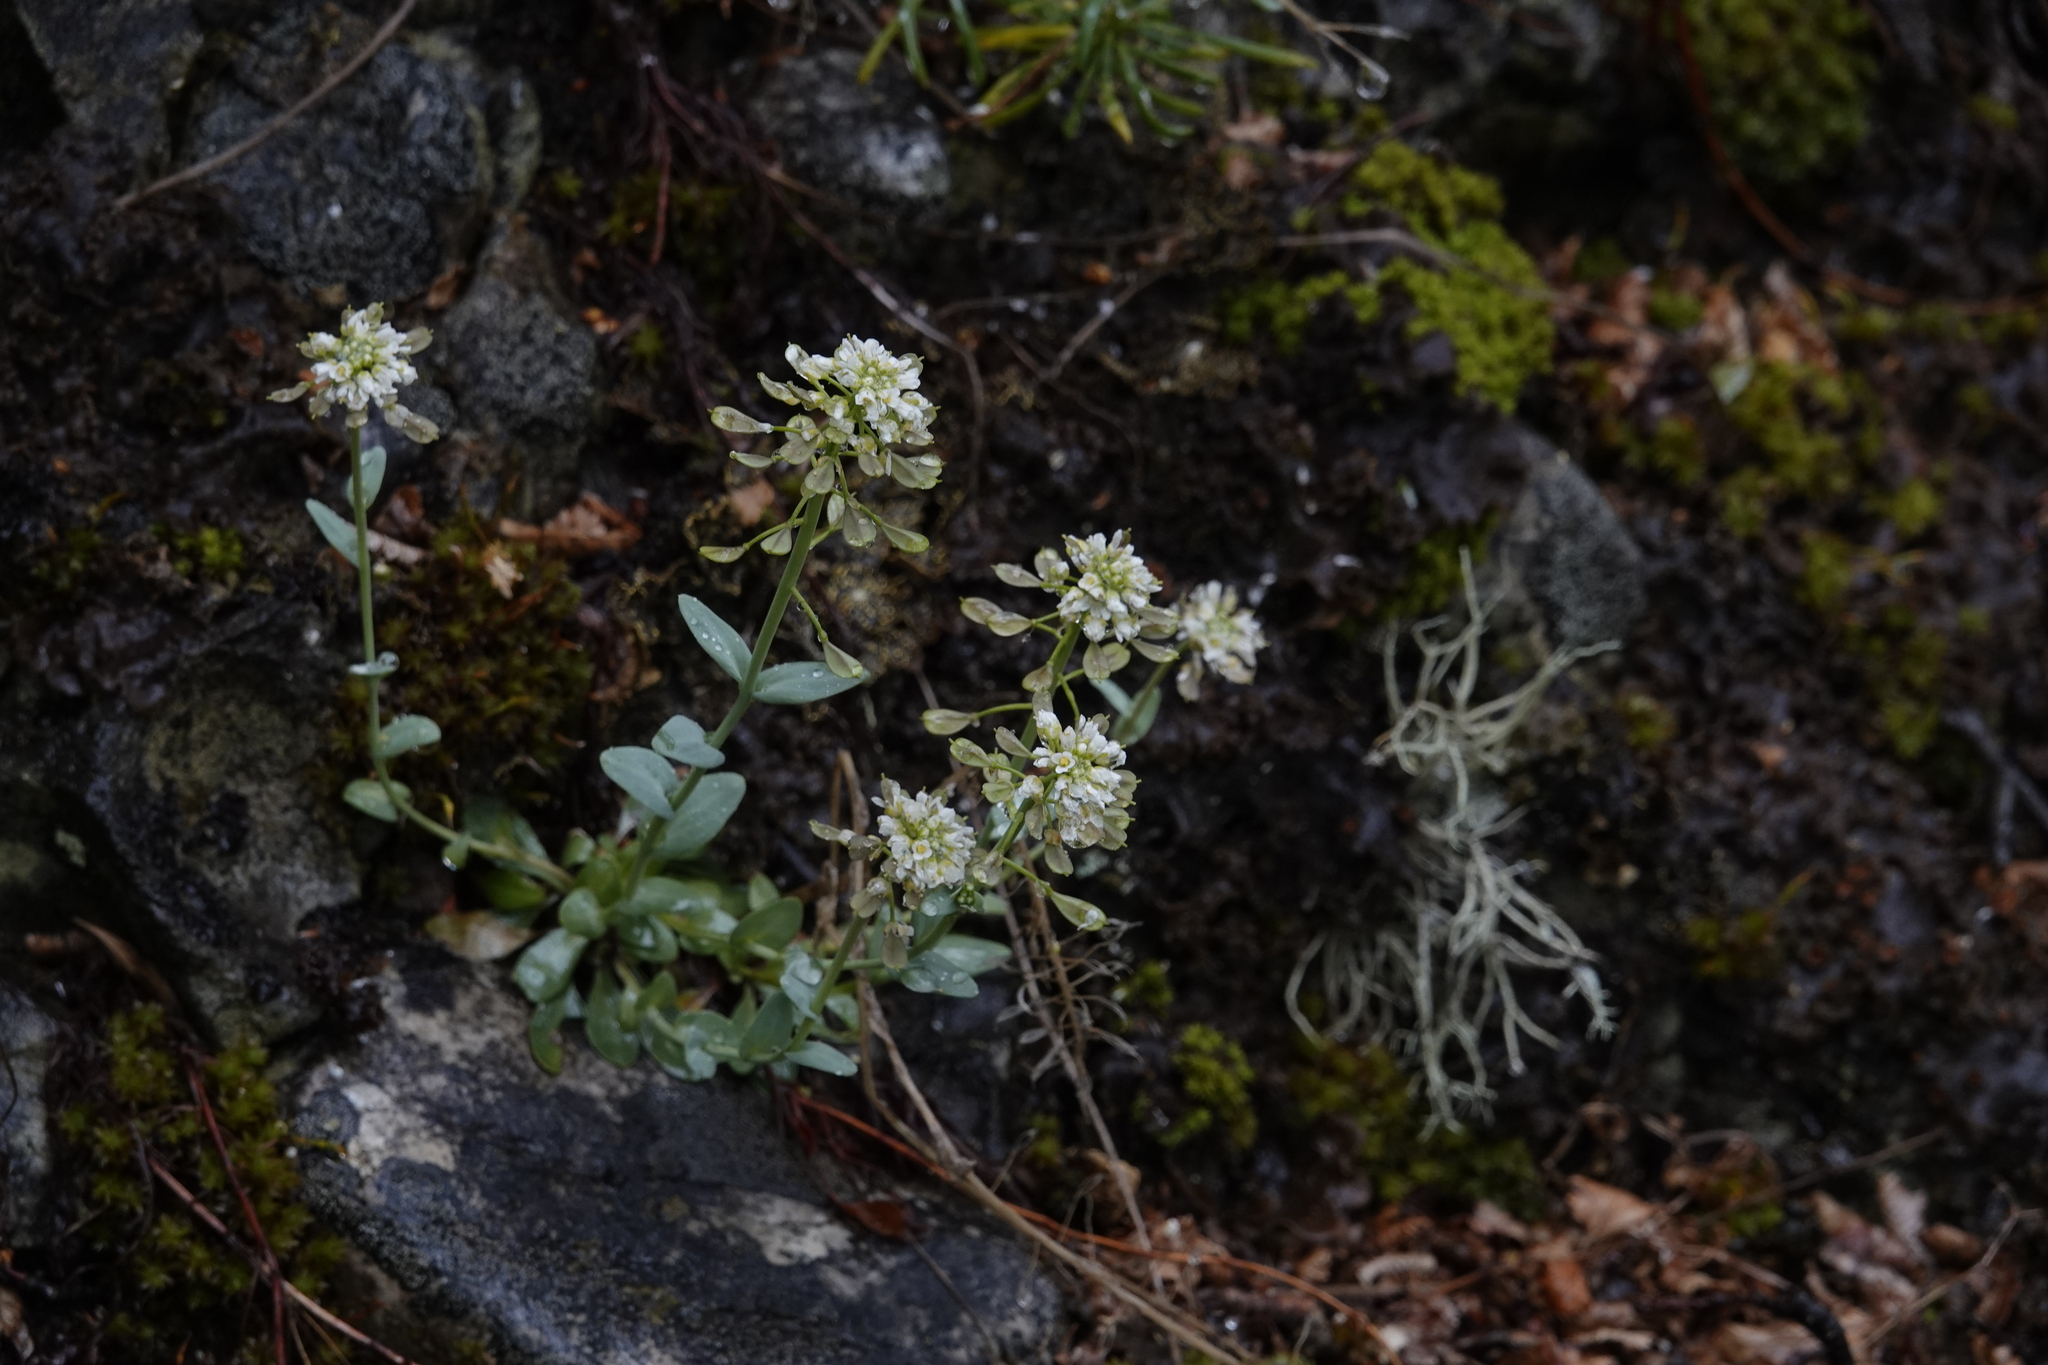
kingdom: Plantae
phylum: Tracheophyta
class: Magnoliopsida
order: Brassicales
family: Brassicaceae
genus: Noccaea
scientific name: Noccaea magellanica
